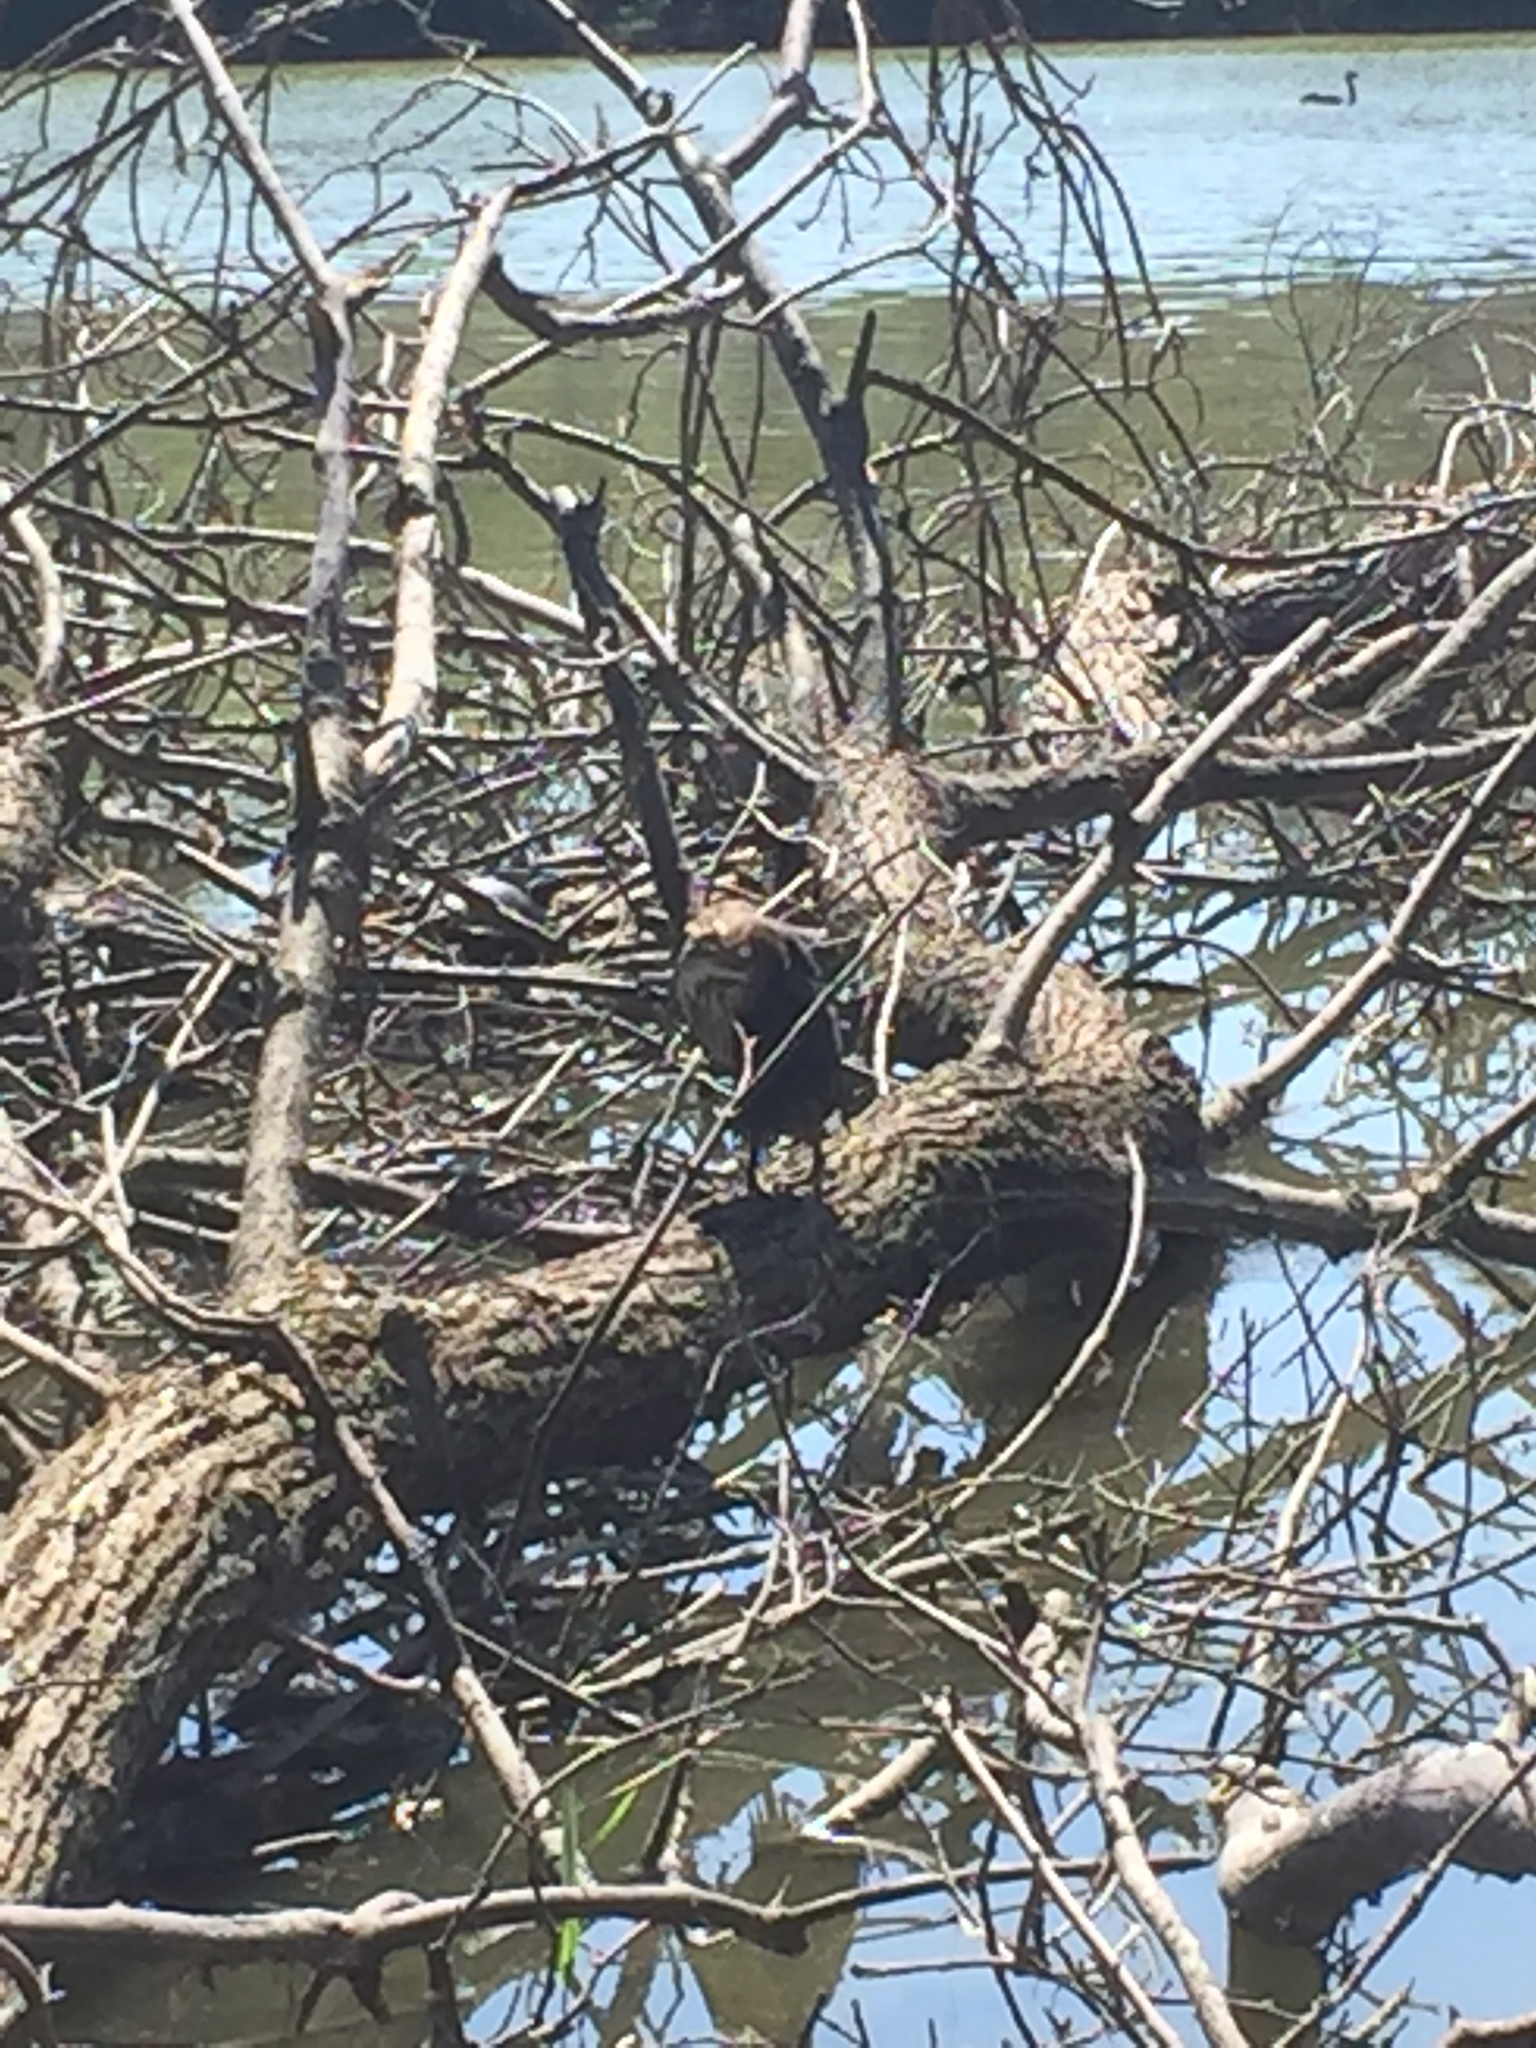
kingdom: Animalia
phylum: Chordata
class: Aves
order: Pelecaniformes
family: Ardeidae
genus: Butorides
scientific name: Butorides virescens
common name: Green heron
